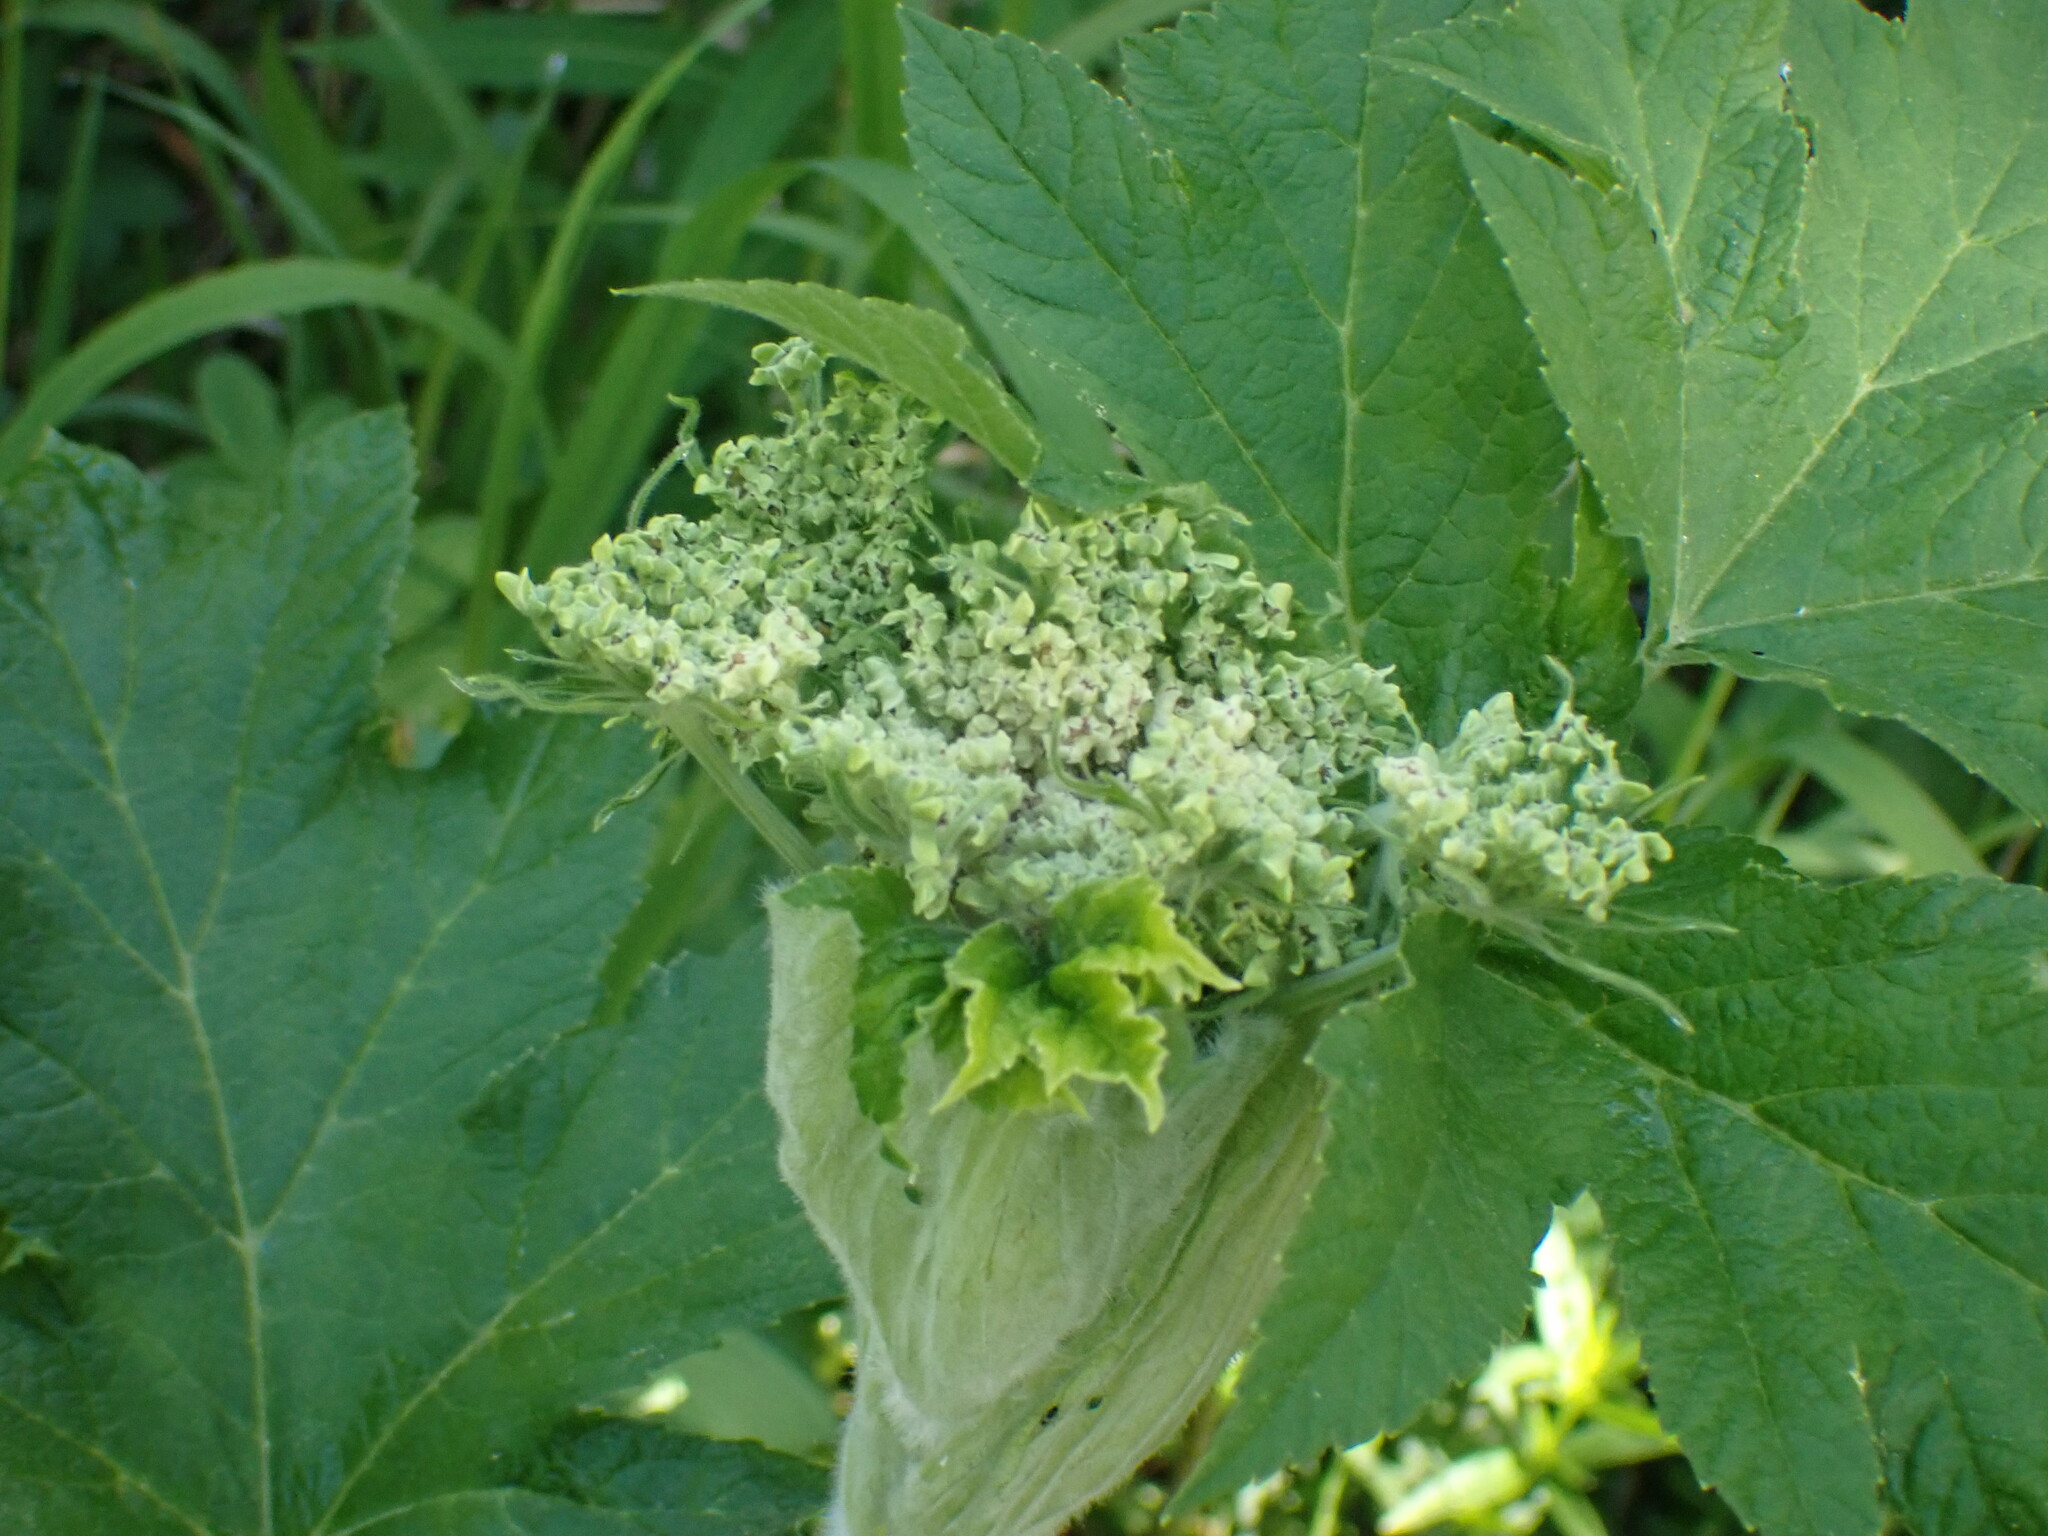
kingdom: Plantae
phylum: Tracheophyta
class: Magnoliopsida
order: Apiales
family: Apiaceae
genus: Heracleum
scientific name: Heracleum maximum
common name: American cow parsnip
